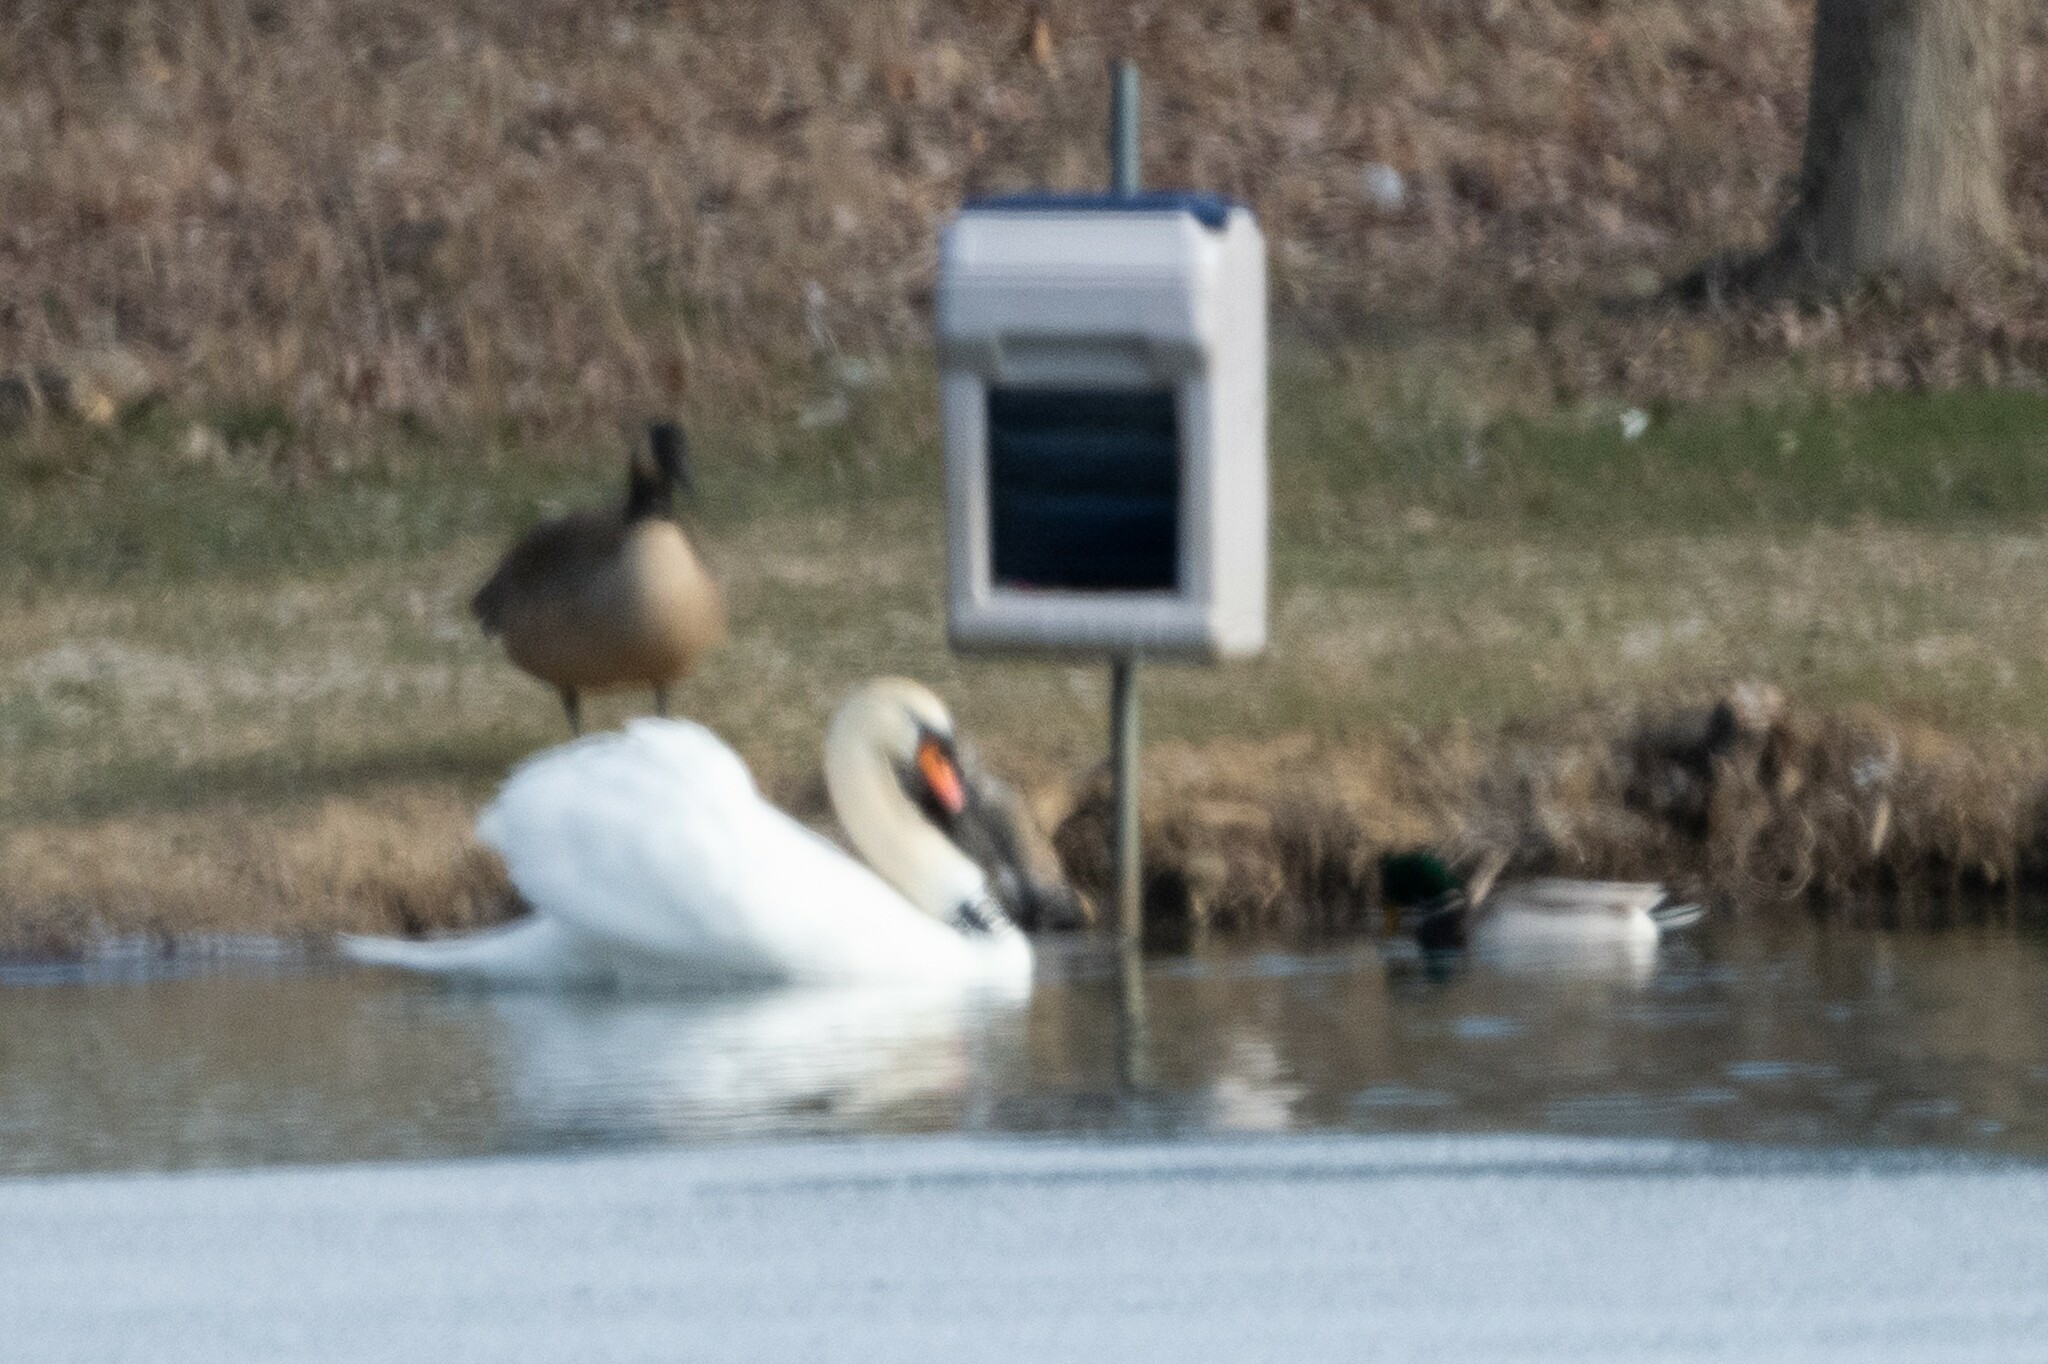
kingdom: Animalia
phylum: Chordata
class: Aves
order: Anseriformes
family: Anatidae
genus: Cygnus
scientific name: Cygnus olor
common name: Mute swan
